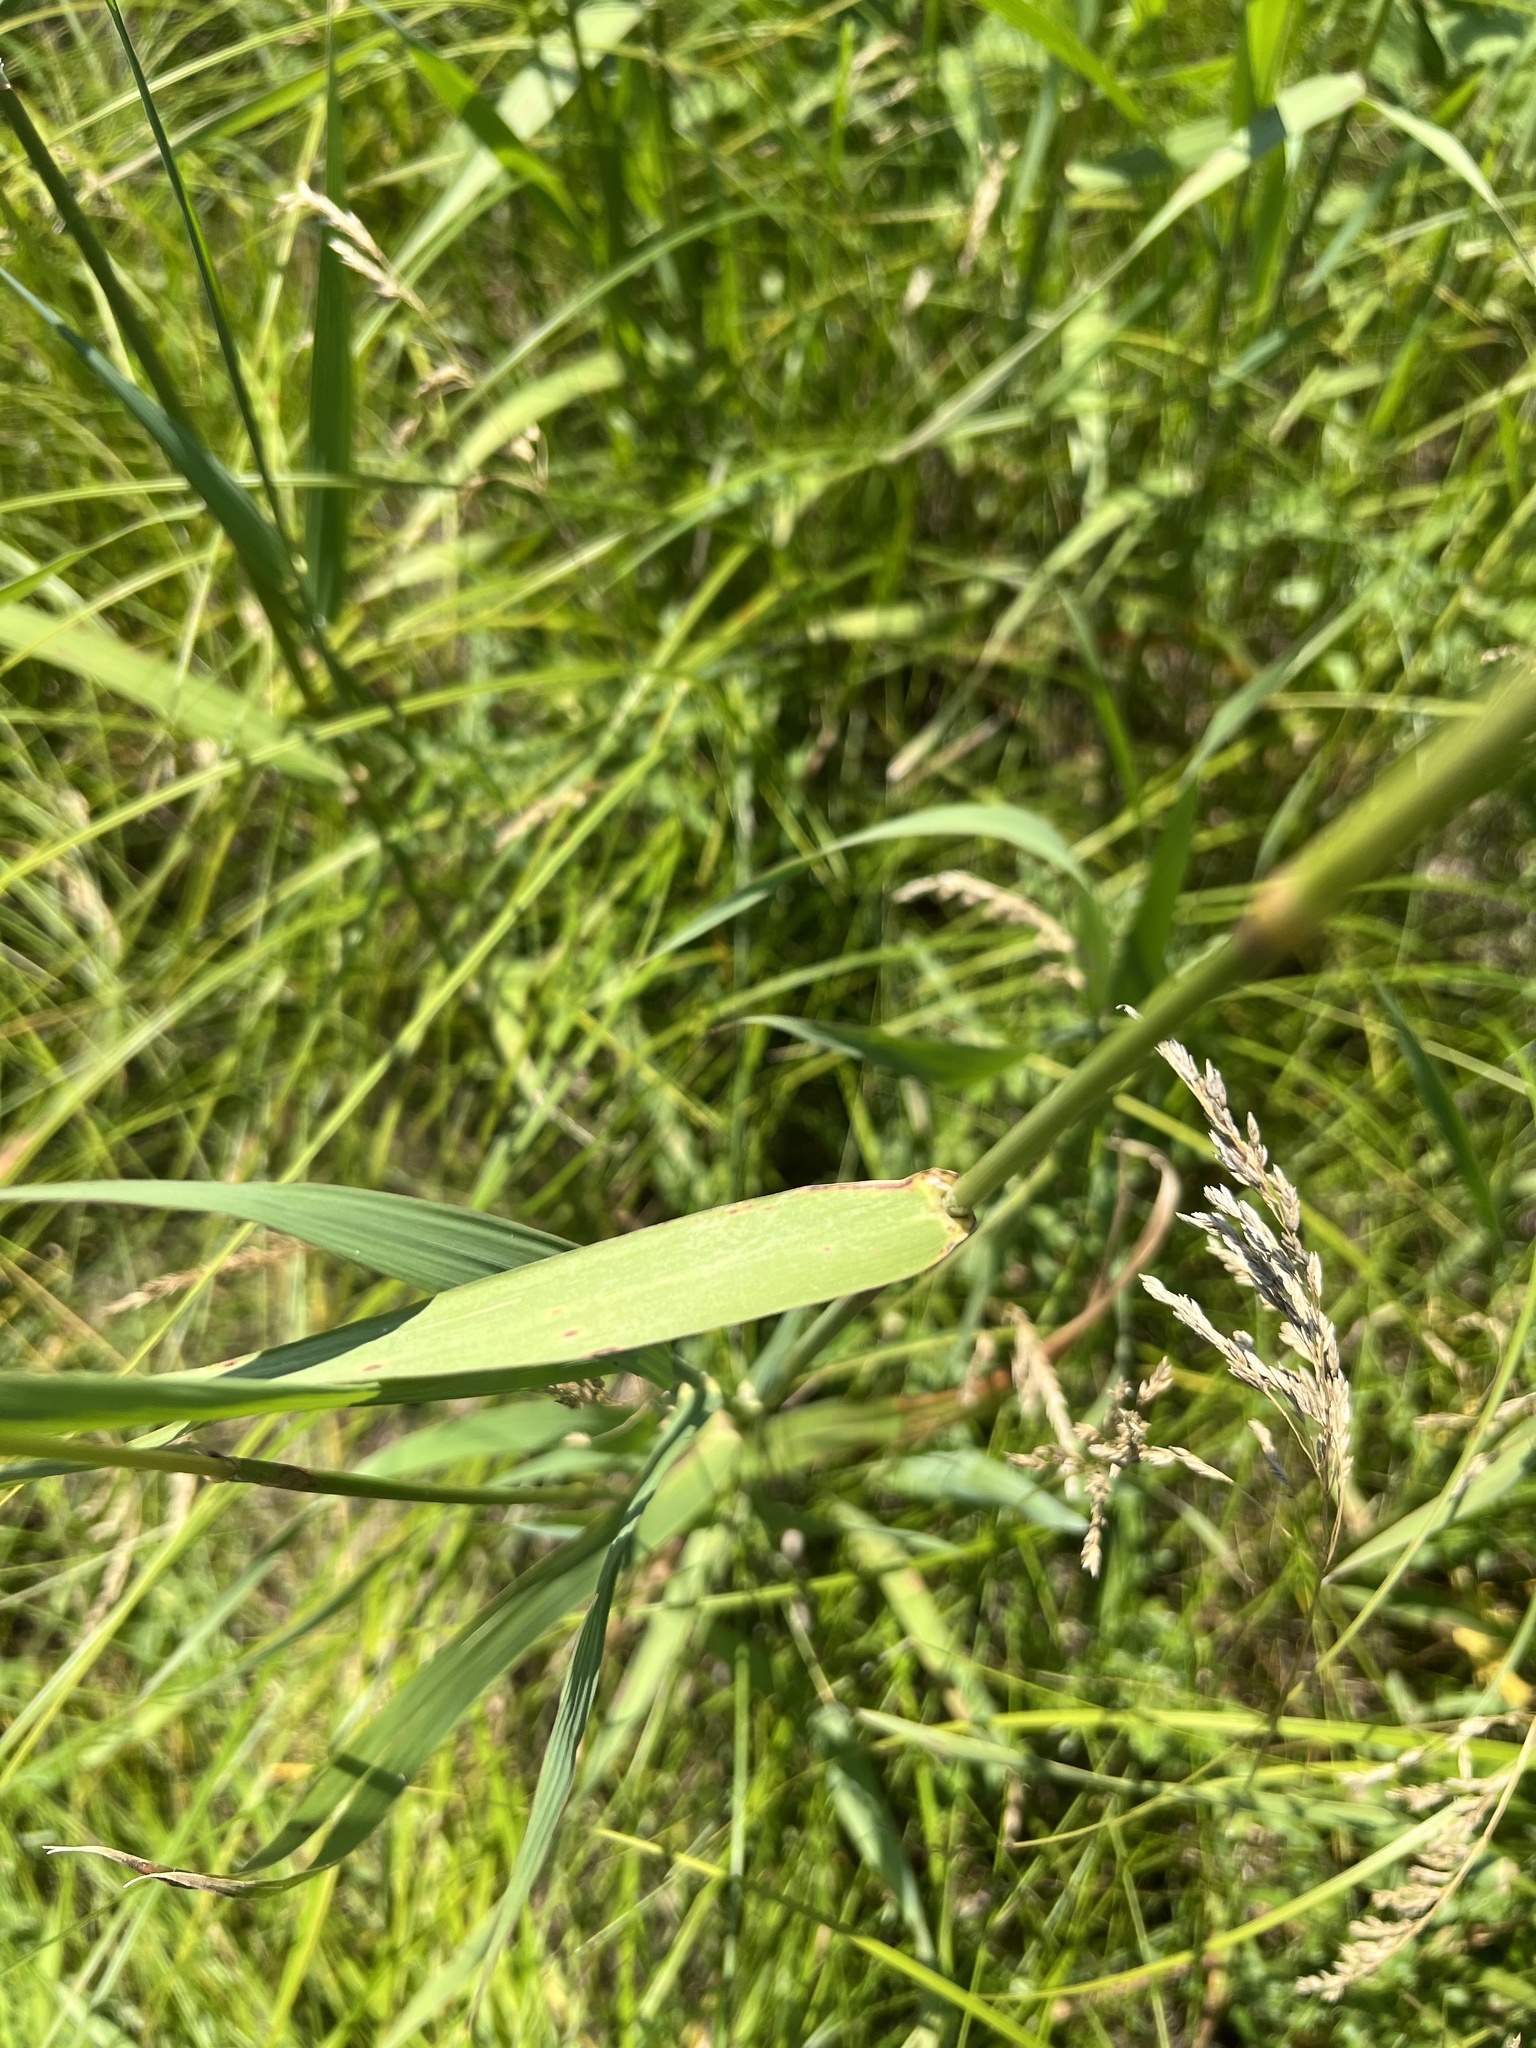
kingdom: Plantae
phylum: Tracheophyta
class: Liliopsida
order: Poales
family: Poaceae
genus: Phalaris
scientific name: Phalaris arundinacea
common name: Reed canary-grass
